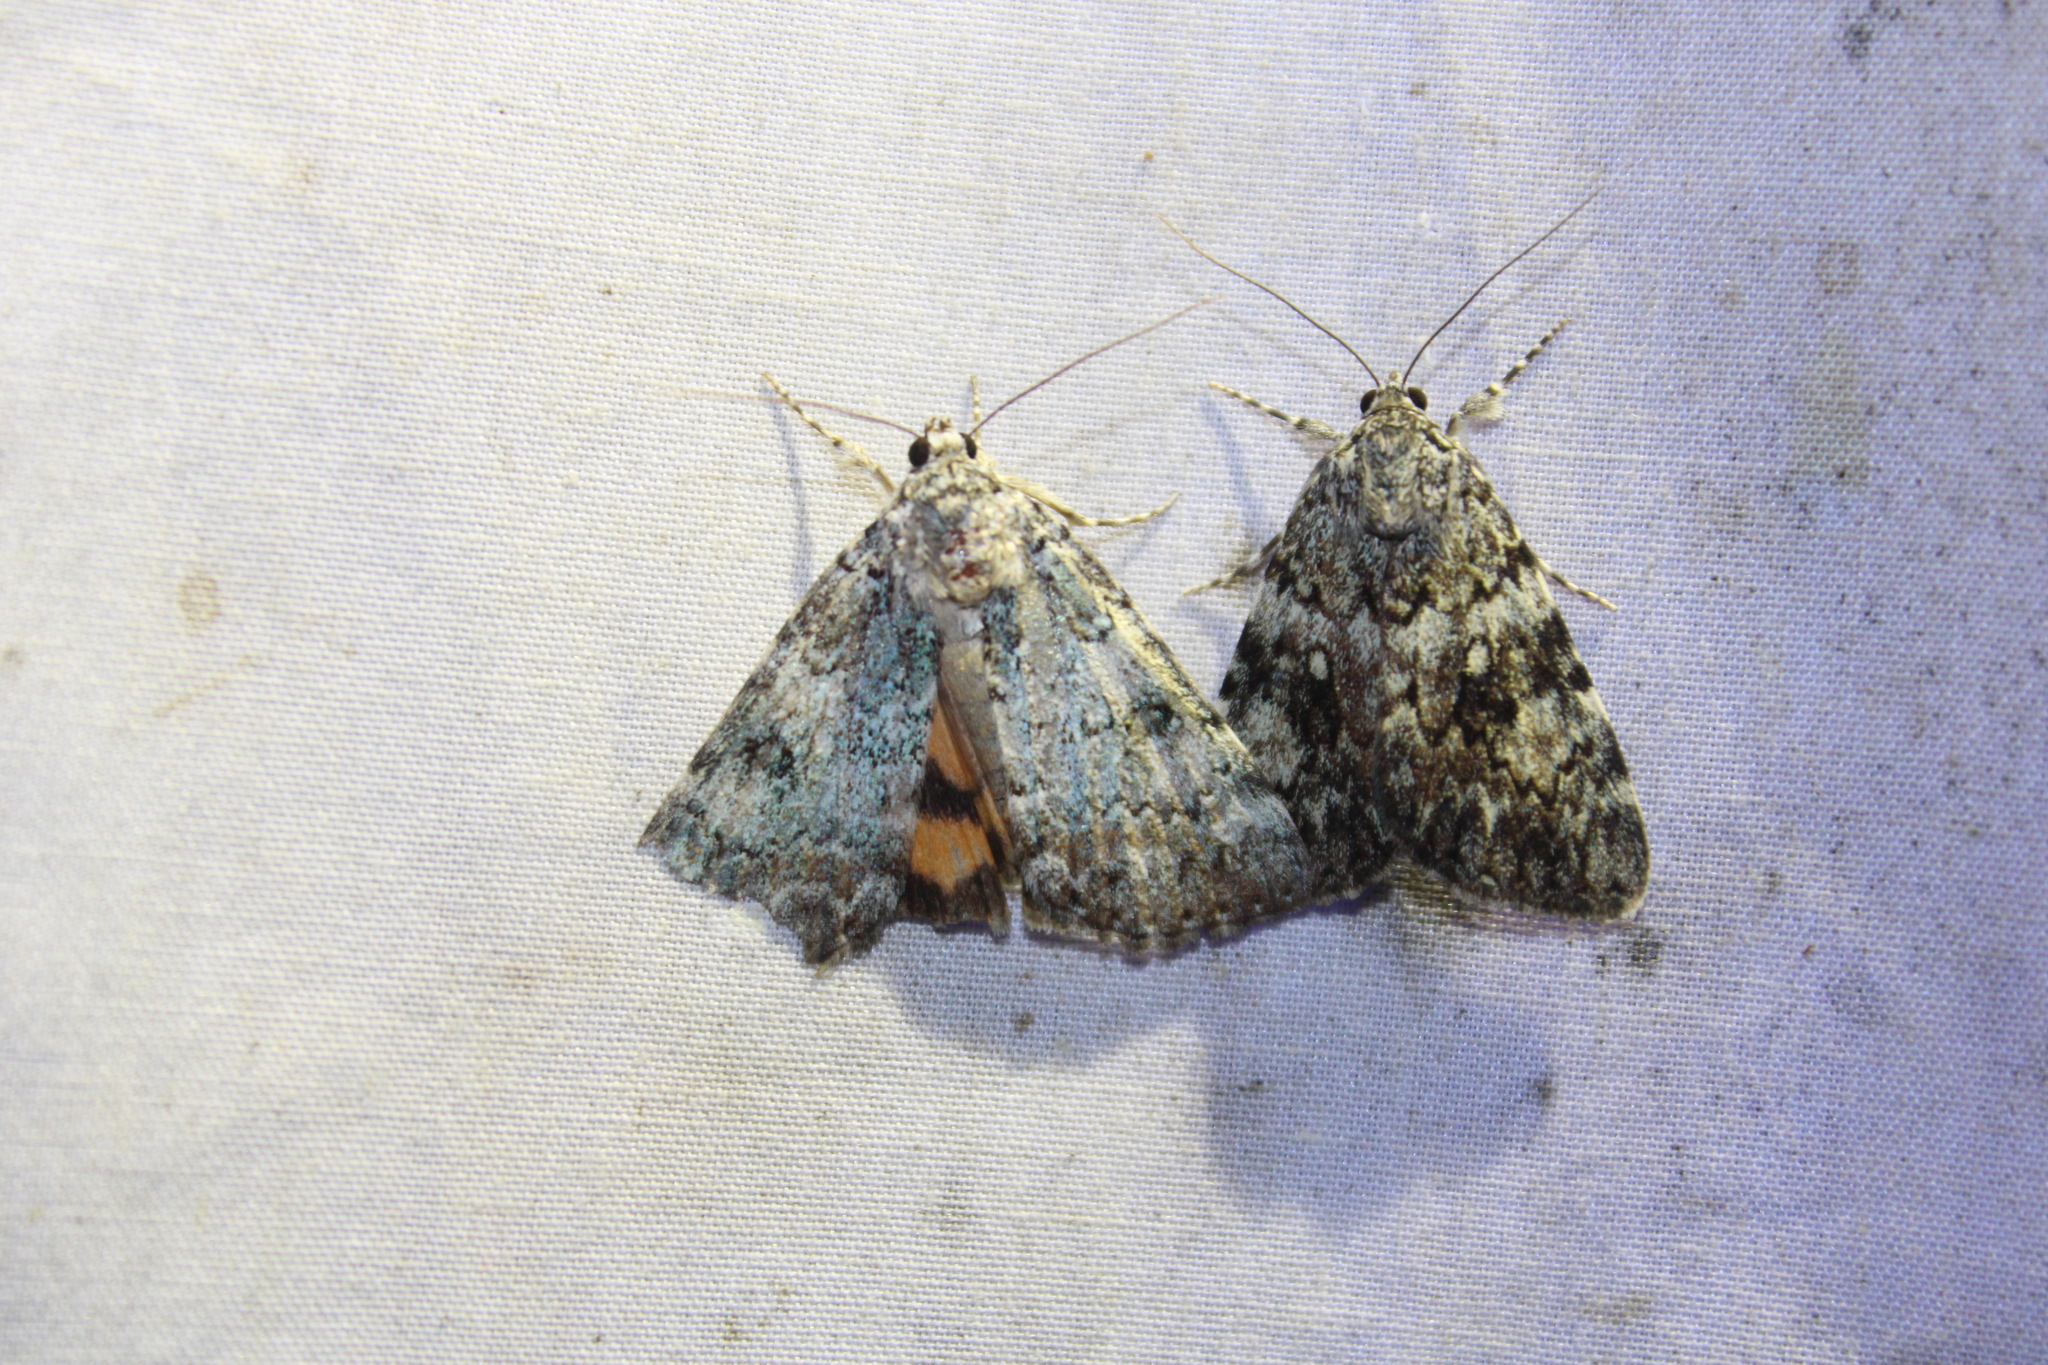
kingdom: Animalia
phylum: Arthropoda
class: Insecta
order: Lepidoptera
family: Erebidae
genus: Catocala
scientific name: Catocala connubialis
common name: Connubial underwing
